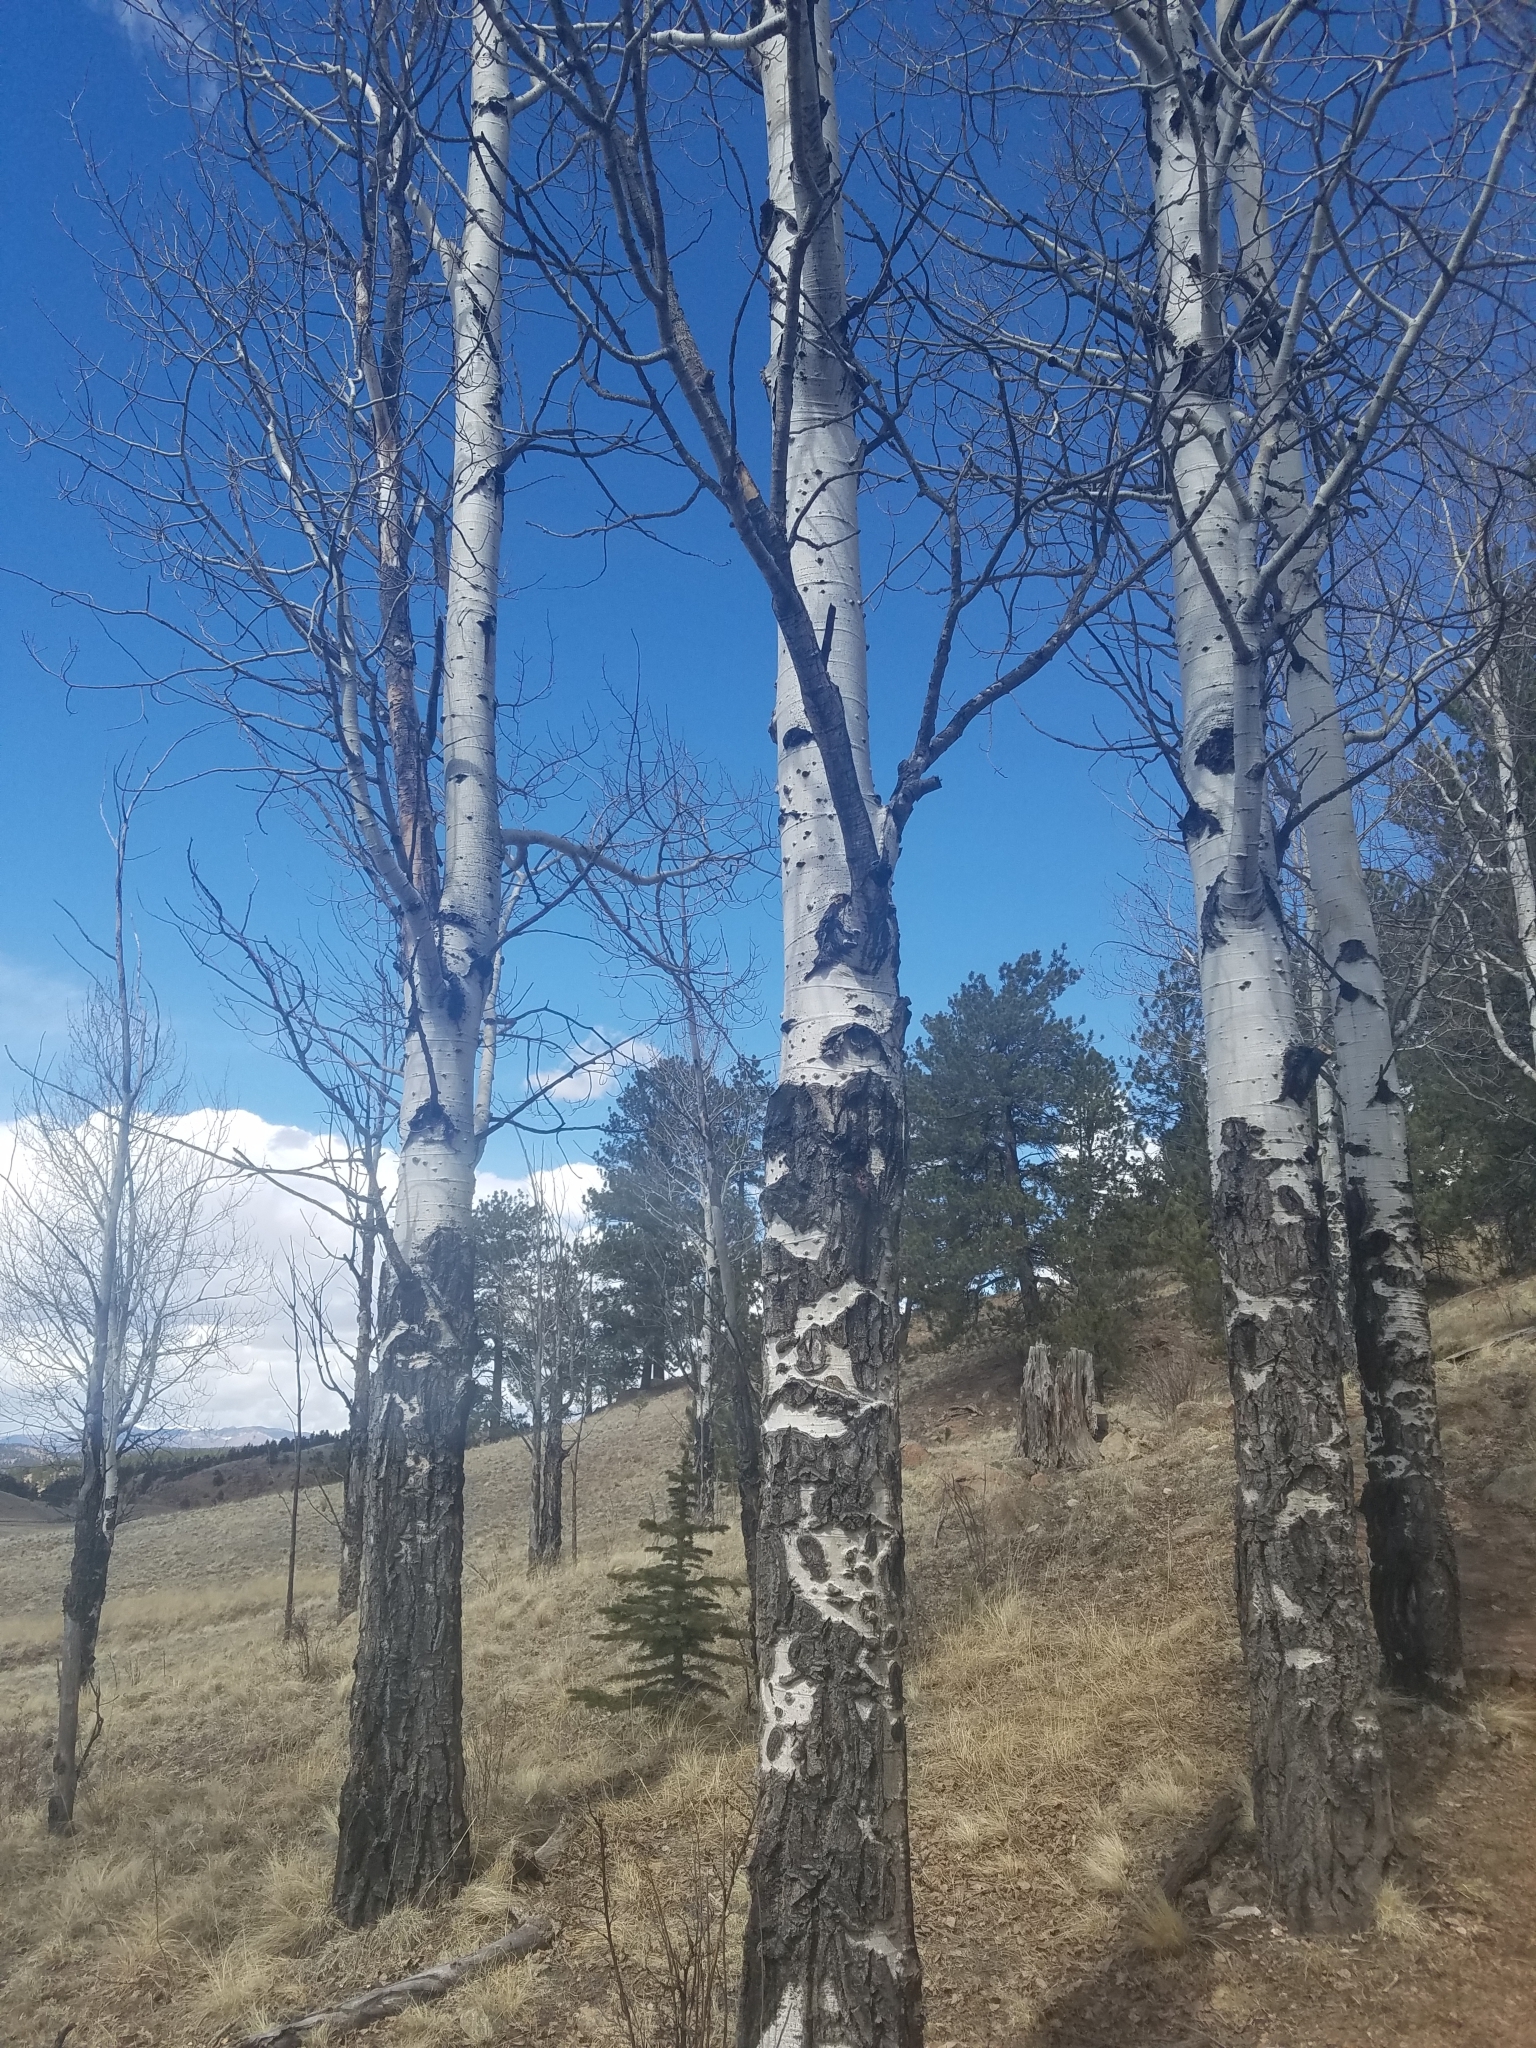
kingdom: Plantae
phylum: Tracheophyta
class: Magnoliopsida
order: Malpighiales
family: Salicaceae
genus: Populus
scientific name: Populus tremuloides
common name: Quaking aspen
